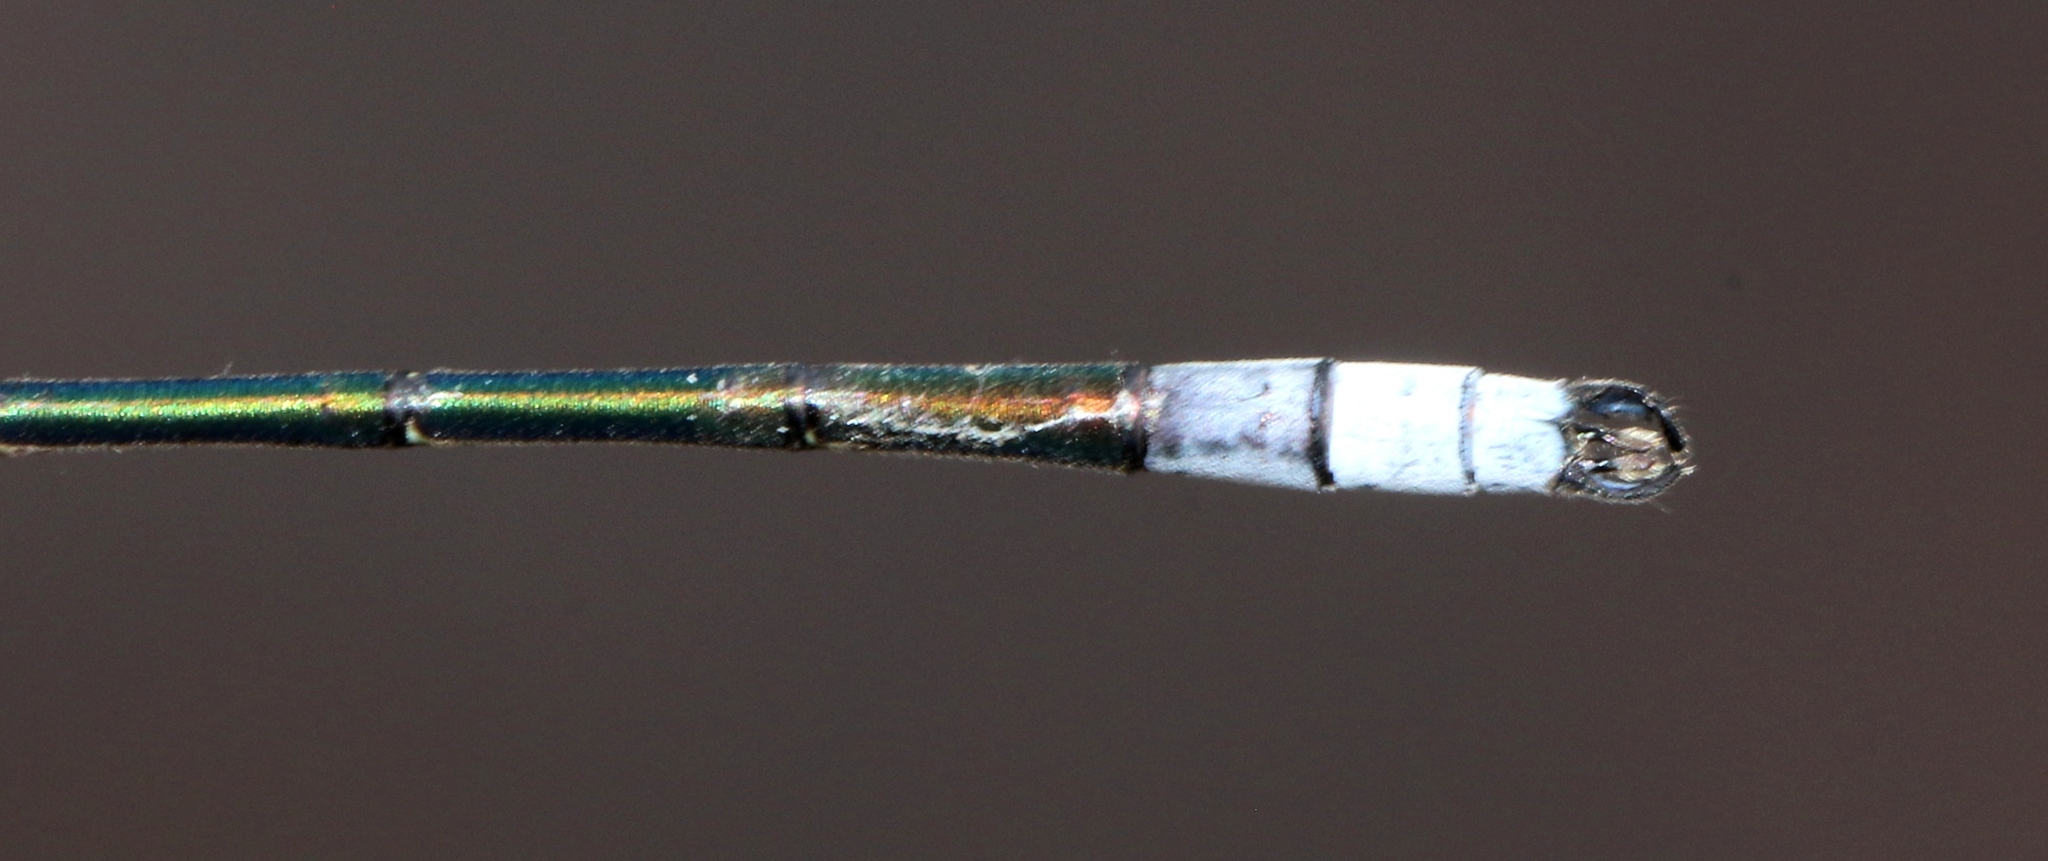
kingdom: Animalia
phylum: Arthropoda
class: Insecta
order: Odonata
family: Lestidae
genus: Lestes
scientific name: Lestes disjunctus
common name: Northern spreadwing
